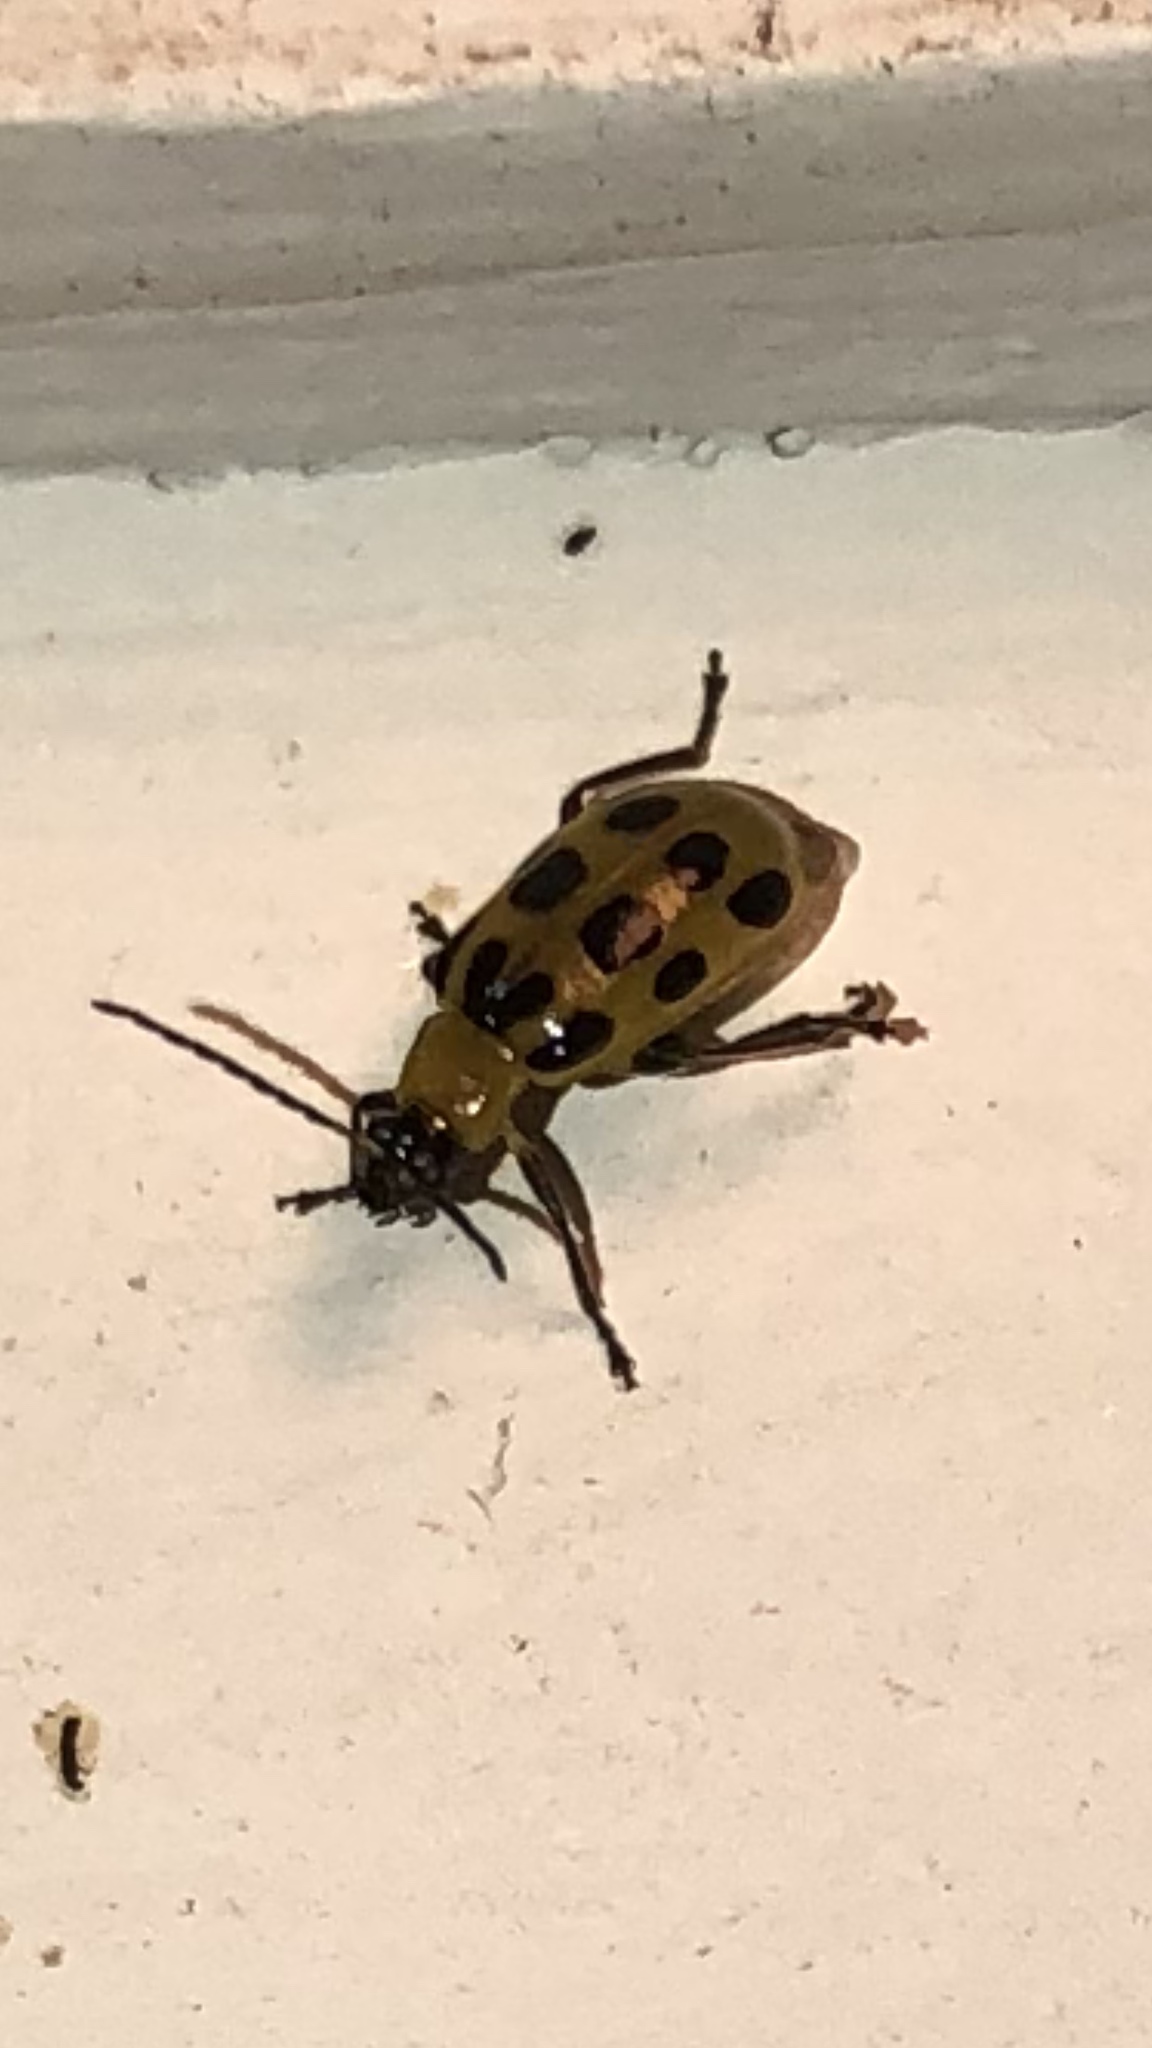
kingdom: Animalia
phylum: Arthropoda
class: Insecta
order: Coleoptera
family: Chrysomelidae
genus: Diabrotica
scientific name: Diabrotica undecimpunctata
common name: Spotted cucumber beetle
